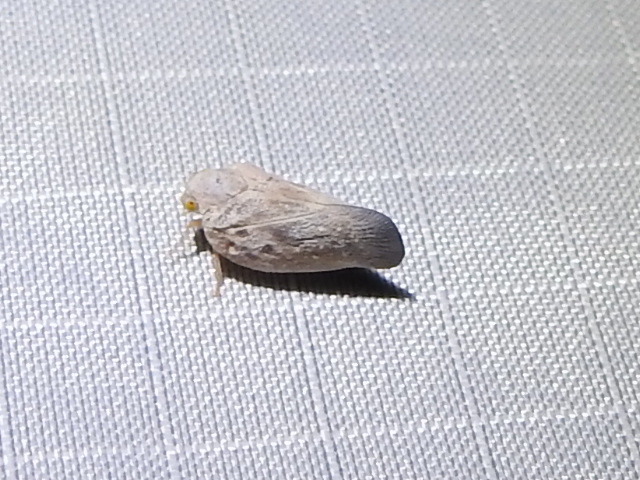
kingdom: Animalia
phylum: Arthropoda
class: Insecta
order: Hemiptera
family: Flatidae
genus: Metcalfa
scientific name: Metcalfa pruinosa
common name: Citrus flatid planthopper
